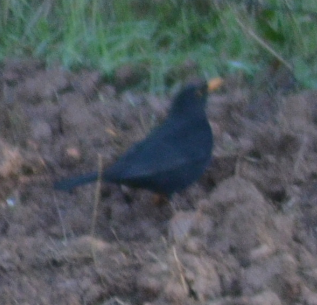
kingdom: Animalia
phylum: Chordata
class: Aves
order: Passeriformes
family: Turdidae
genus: Turdus
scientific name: Turdus merula
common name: Common blackbird
